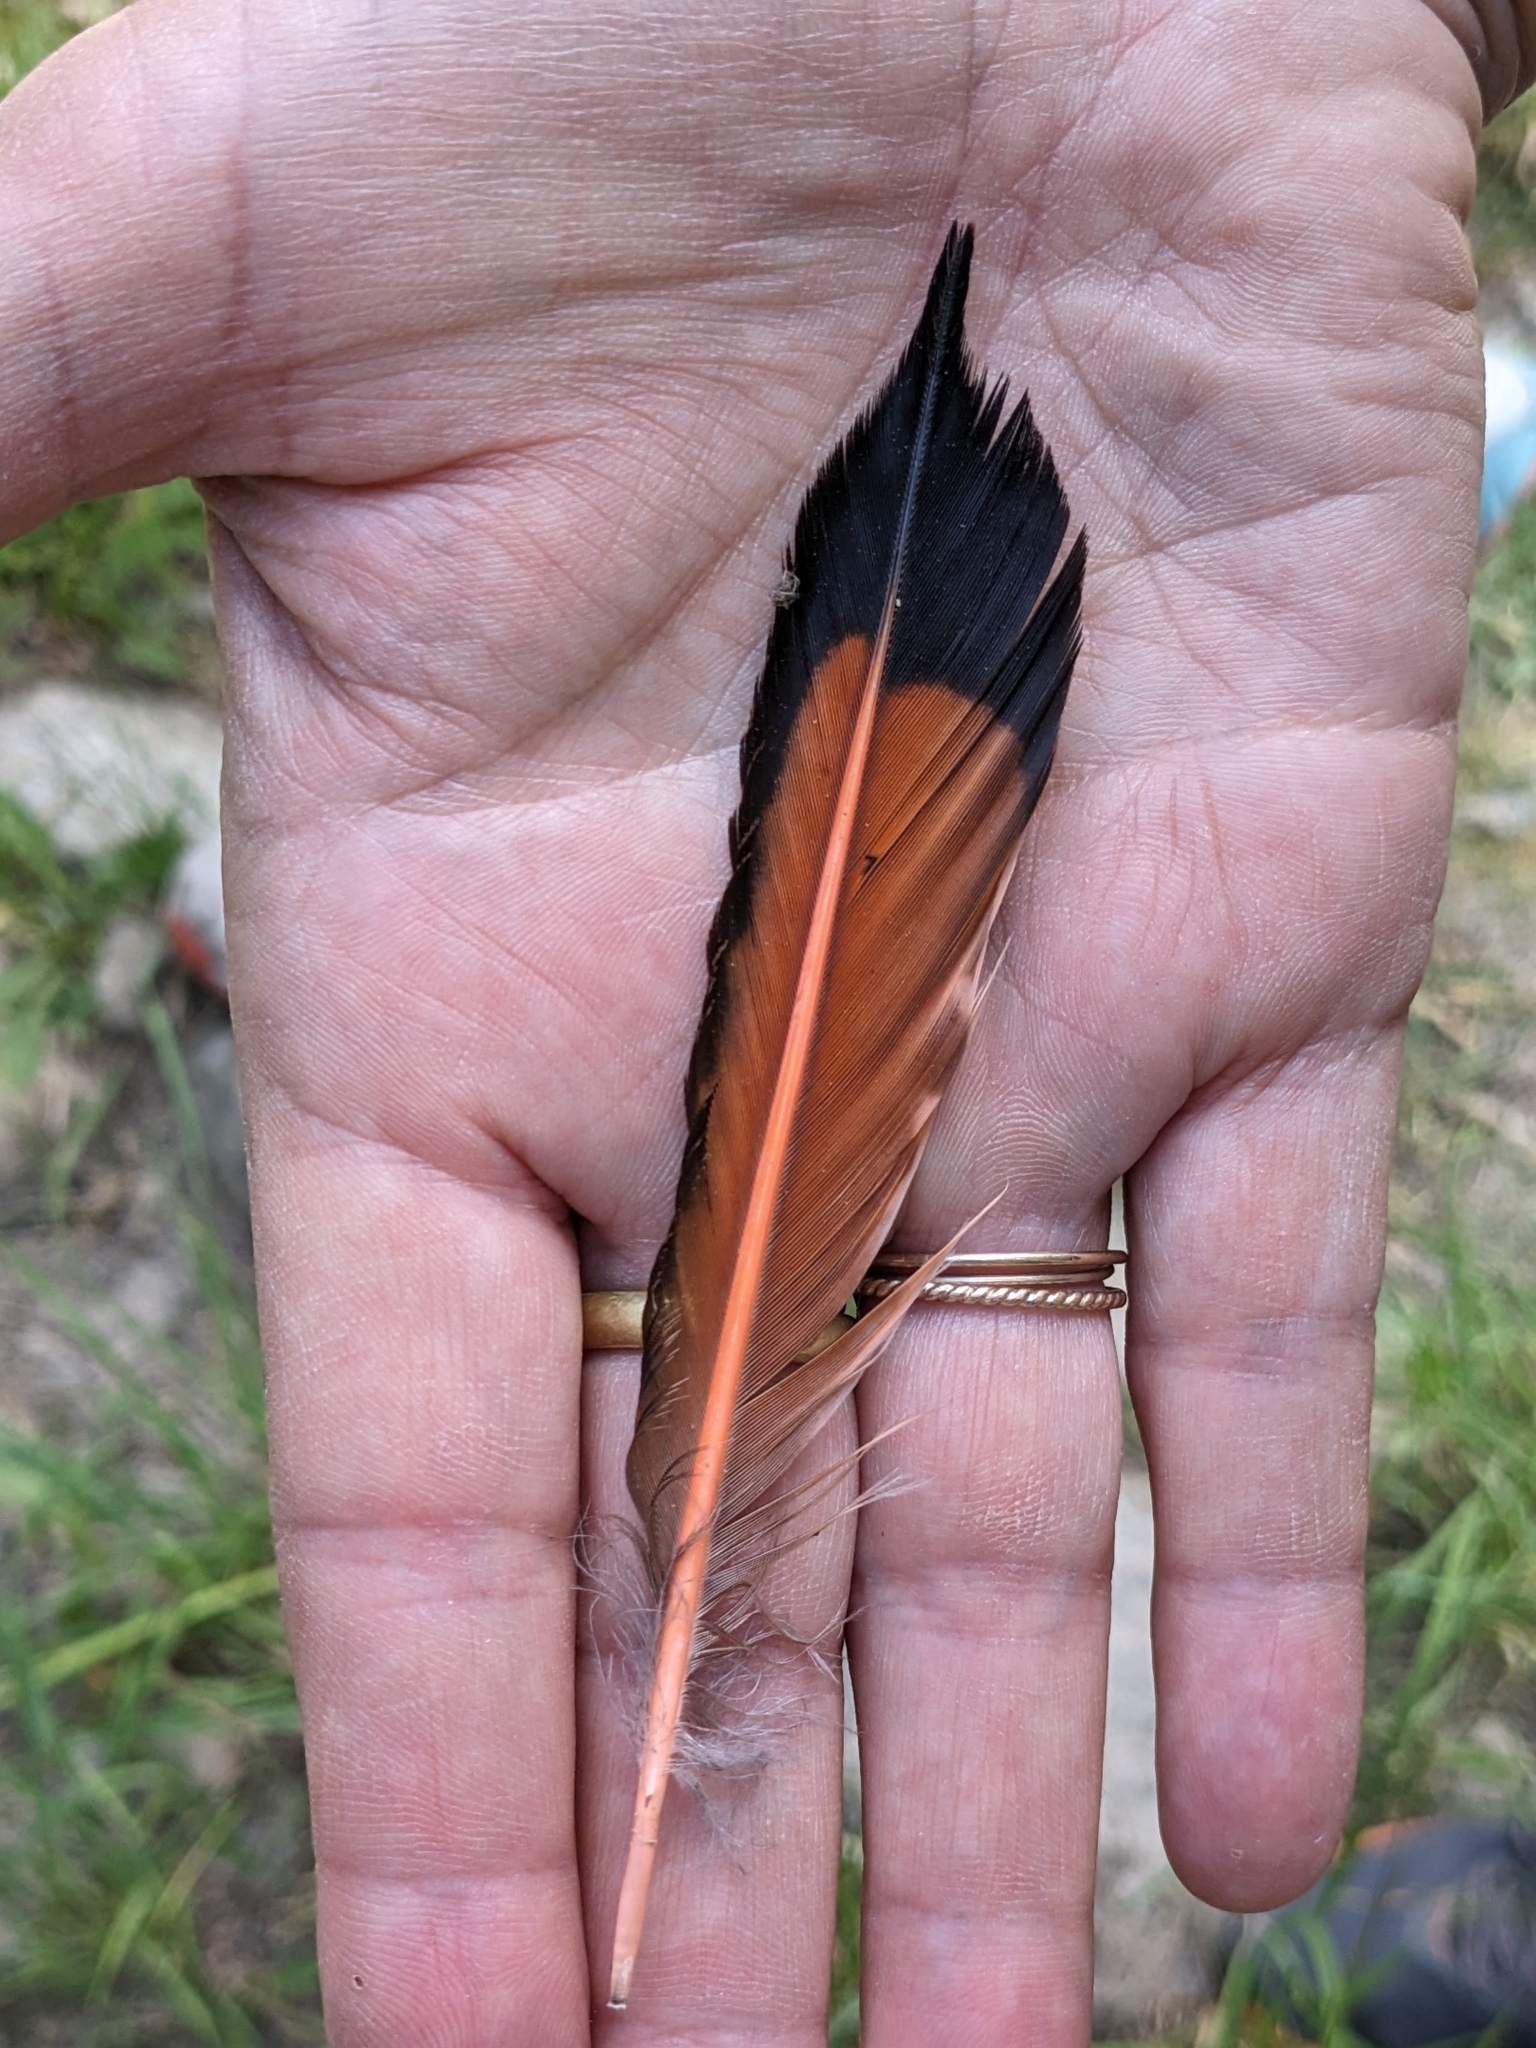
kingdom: Animalia
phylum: Chordata
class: Aves
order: Piciformes
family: Picidae
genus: Colaptes
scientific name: Colaptes auratus
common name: Northern flicker
